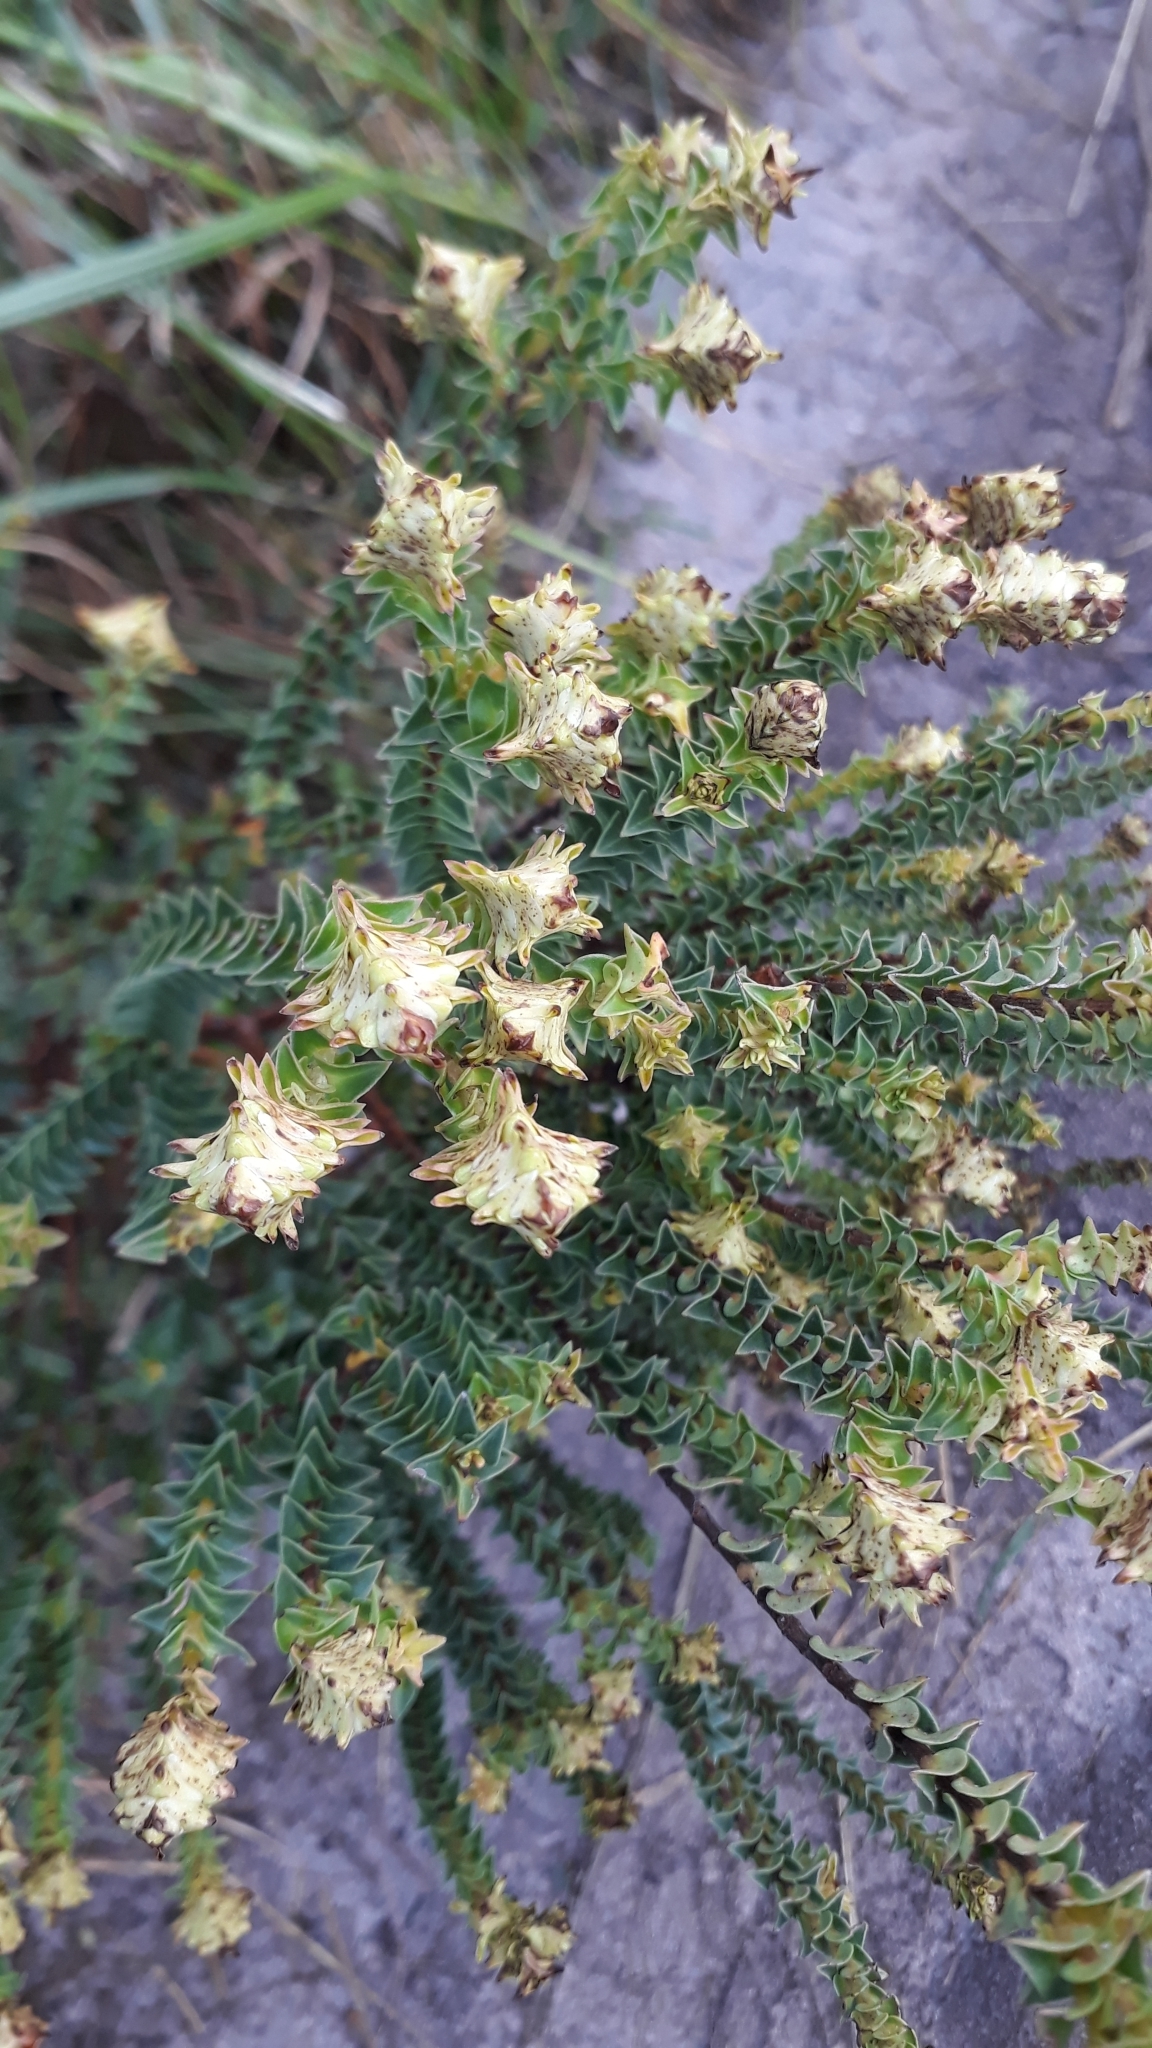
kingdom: Plantae
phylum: Tracheophyta
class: Magnoliopsida
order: Myrtales
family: Penaeaceae
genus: Penaea
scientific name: Penaea mucronata
